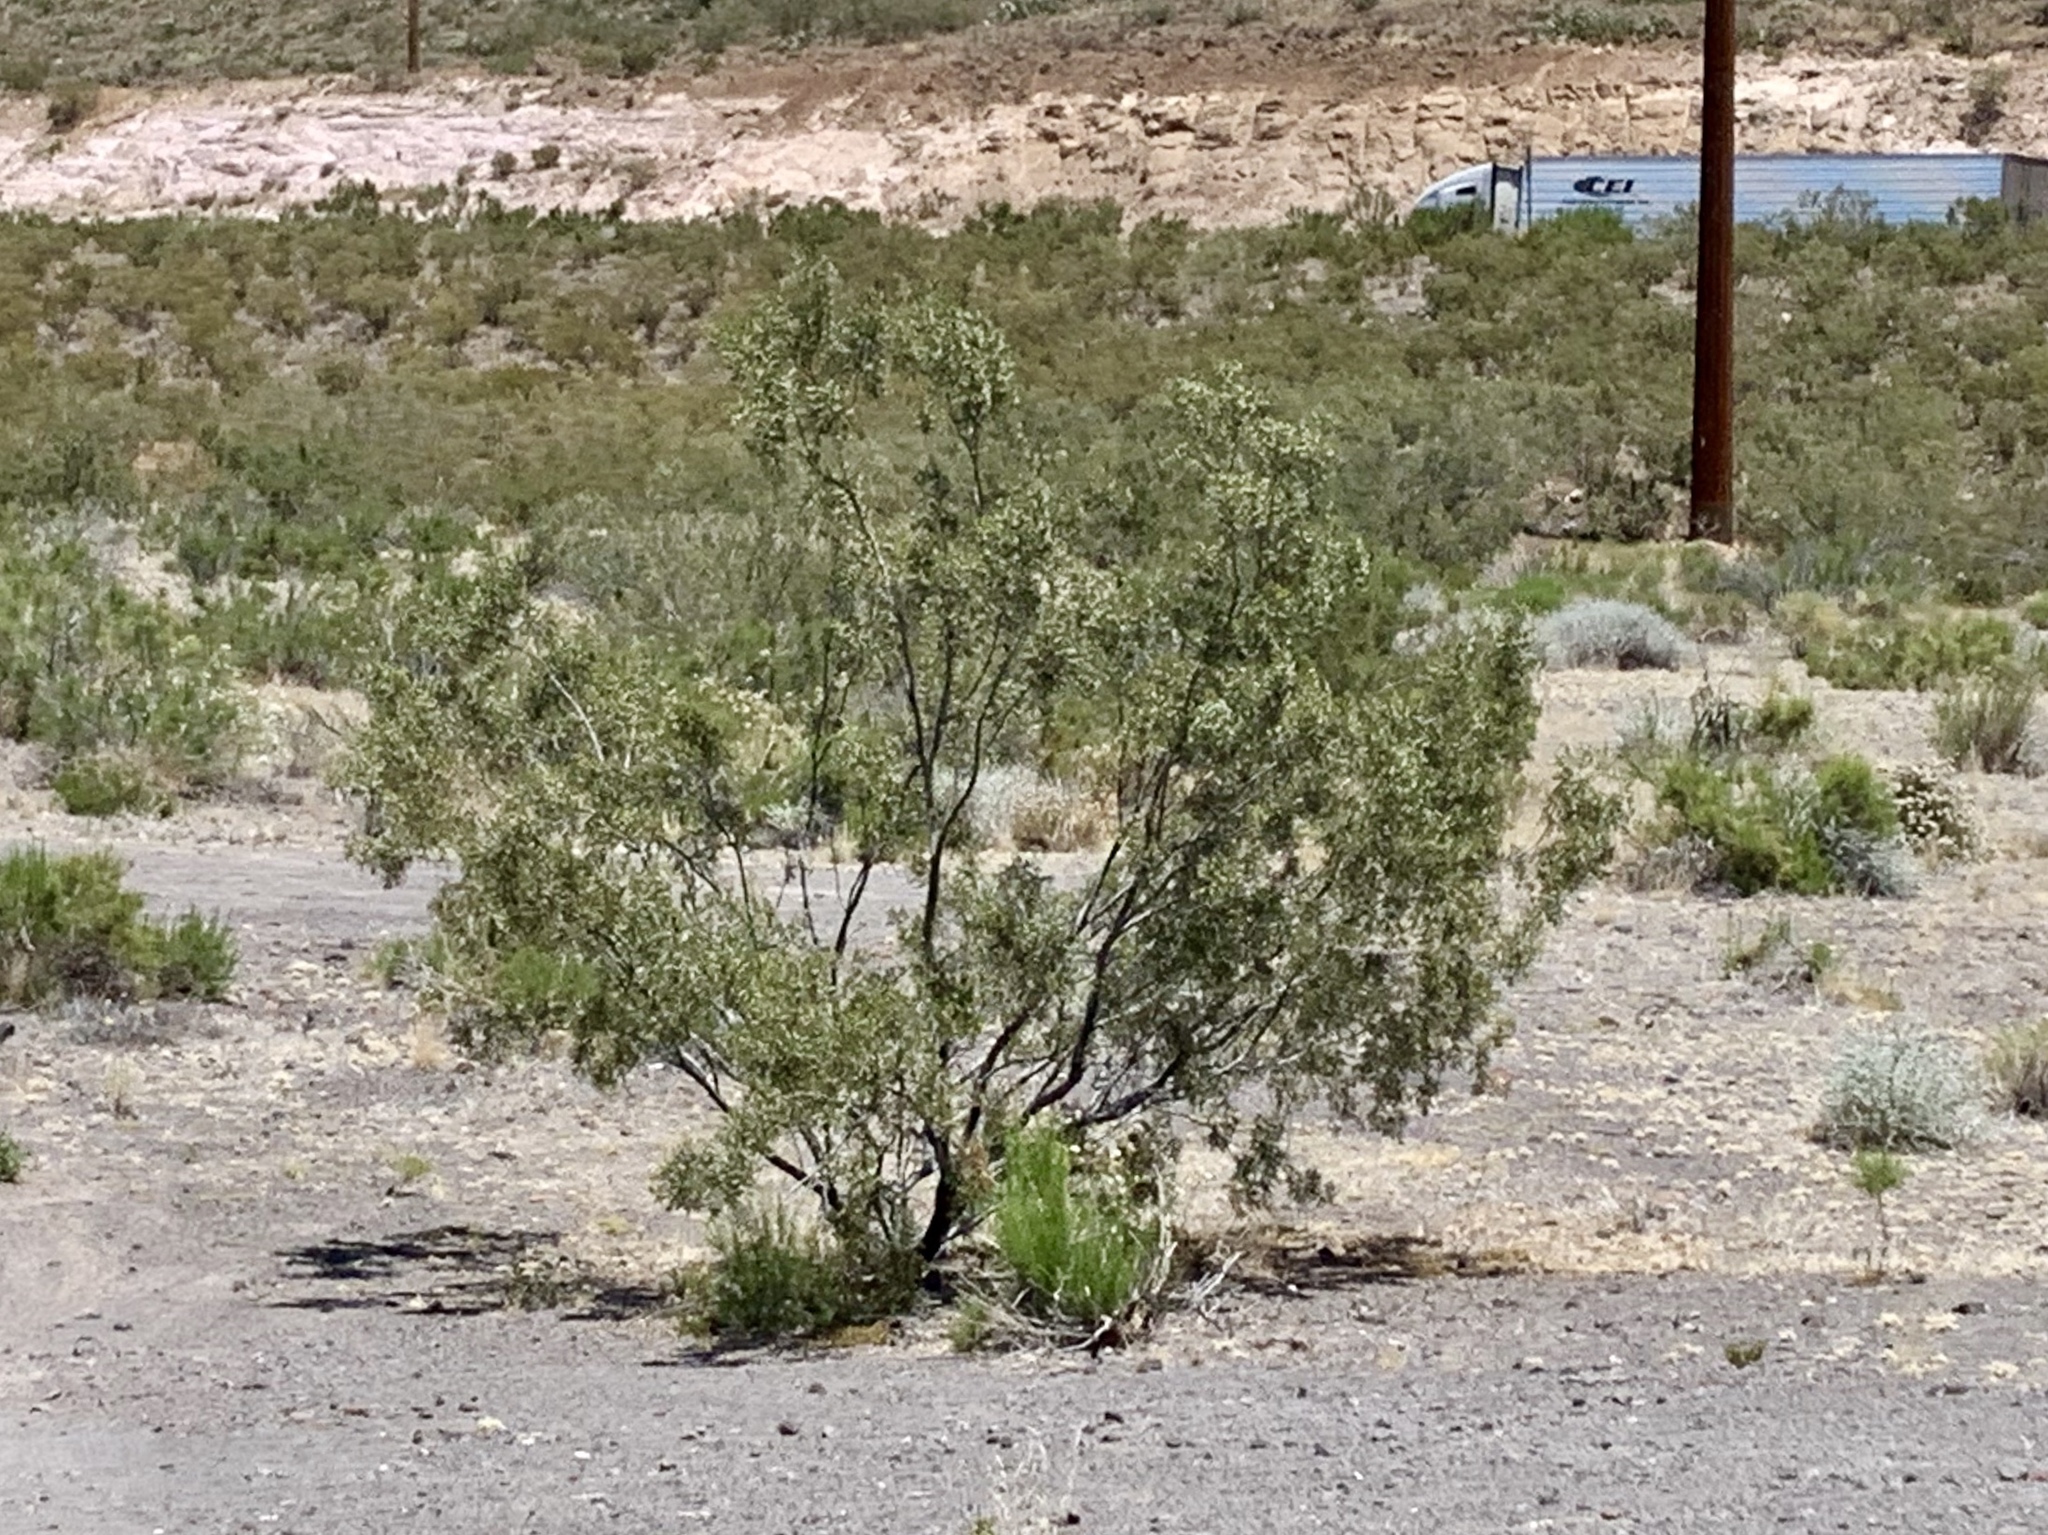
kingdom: Plantae
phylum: Tracheophyta
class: Magnoliopsida
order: Zygophyllales
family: Zygophyllaceae
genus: Larrea
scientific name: Larrea tridentata
